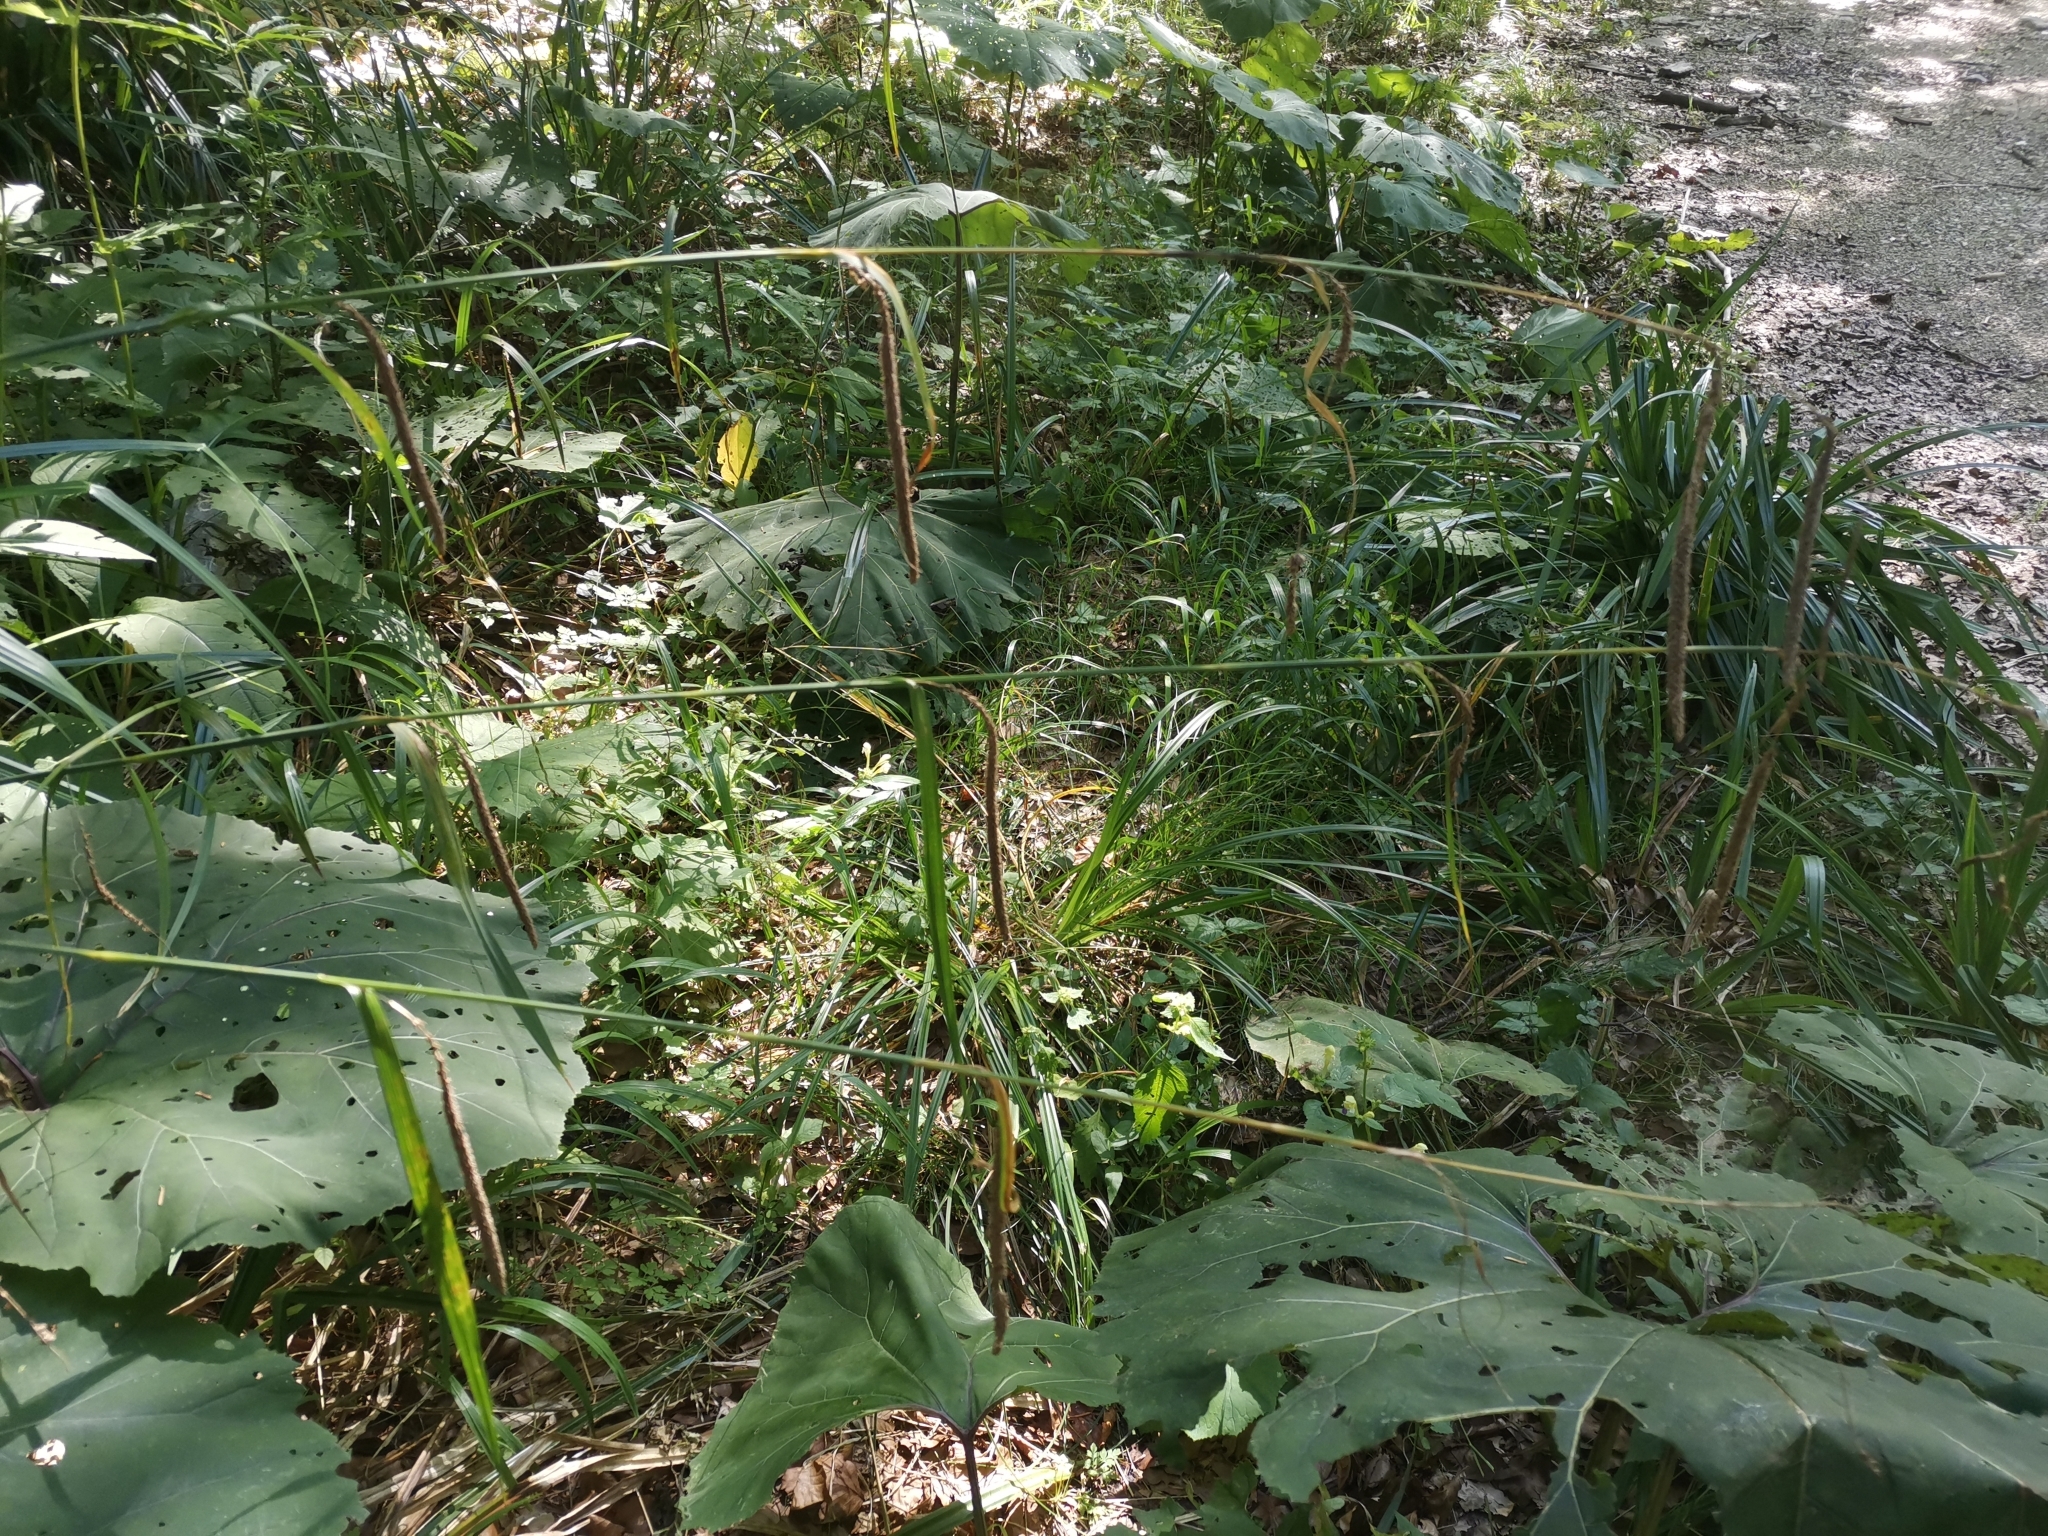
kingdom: Plantae
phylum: Tracheophyta
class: Liliopsida
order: Poales
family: Cyperaceae
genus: Carex
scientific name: Carex pendula
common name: Pendulous sedge
